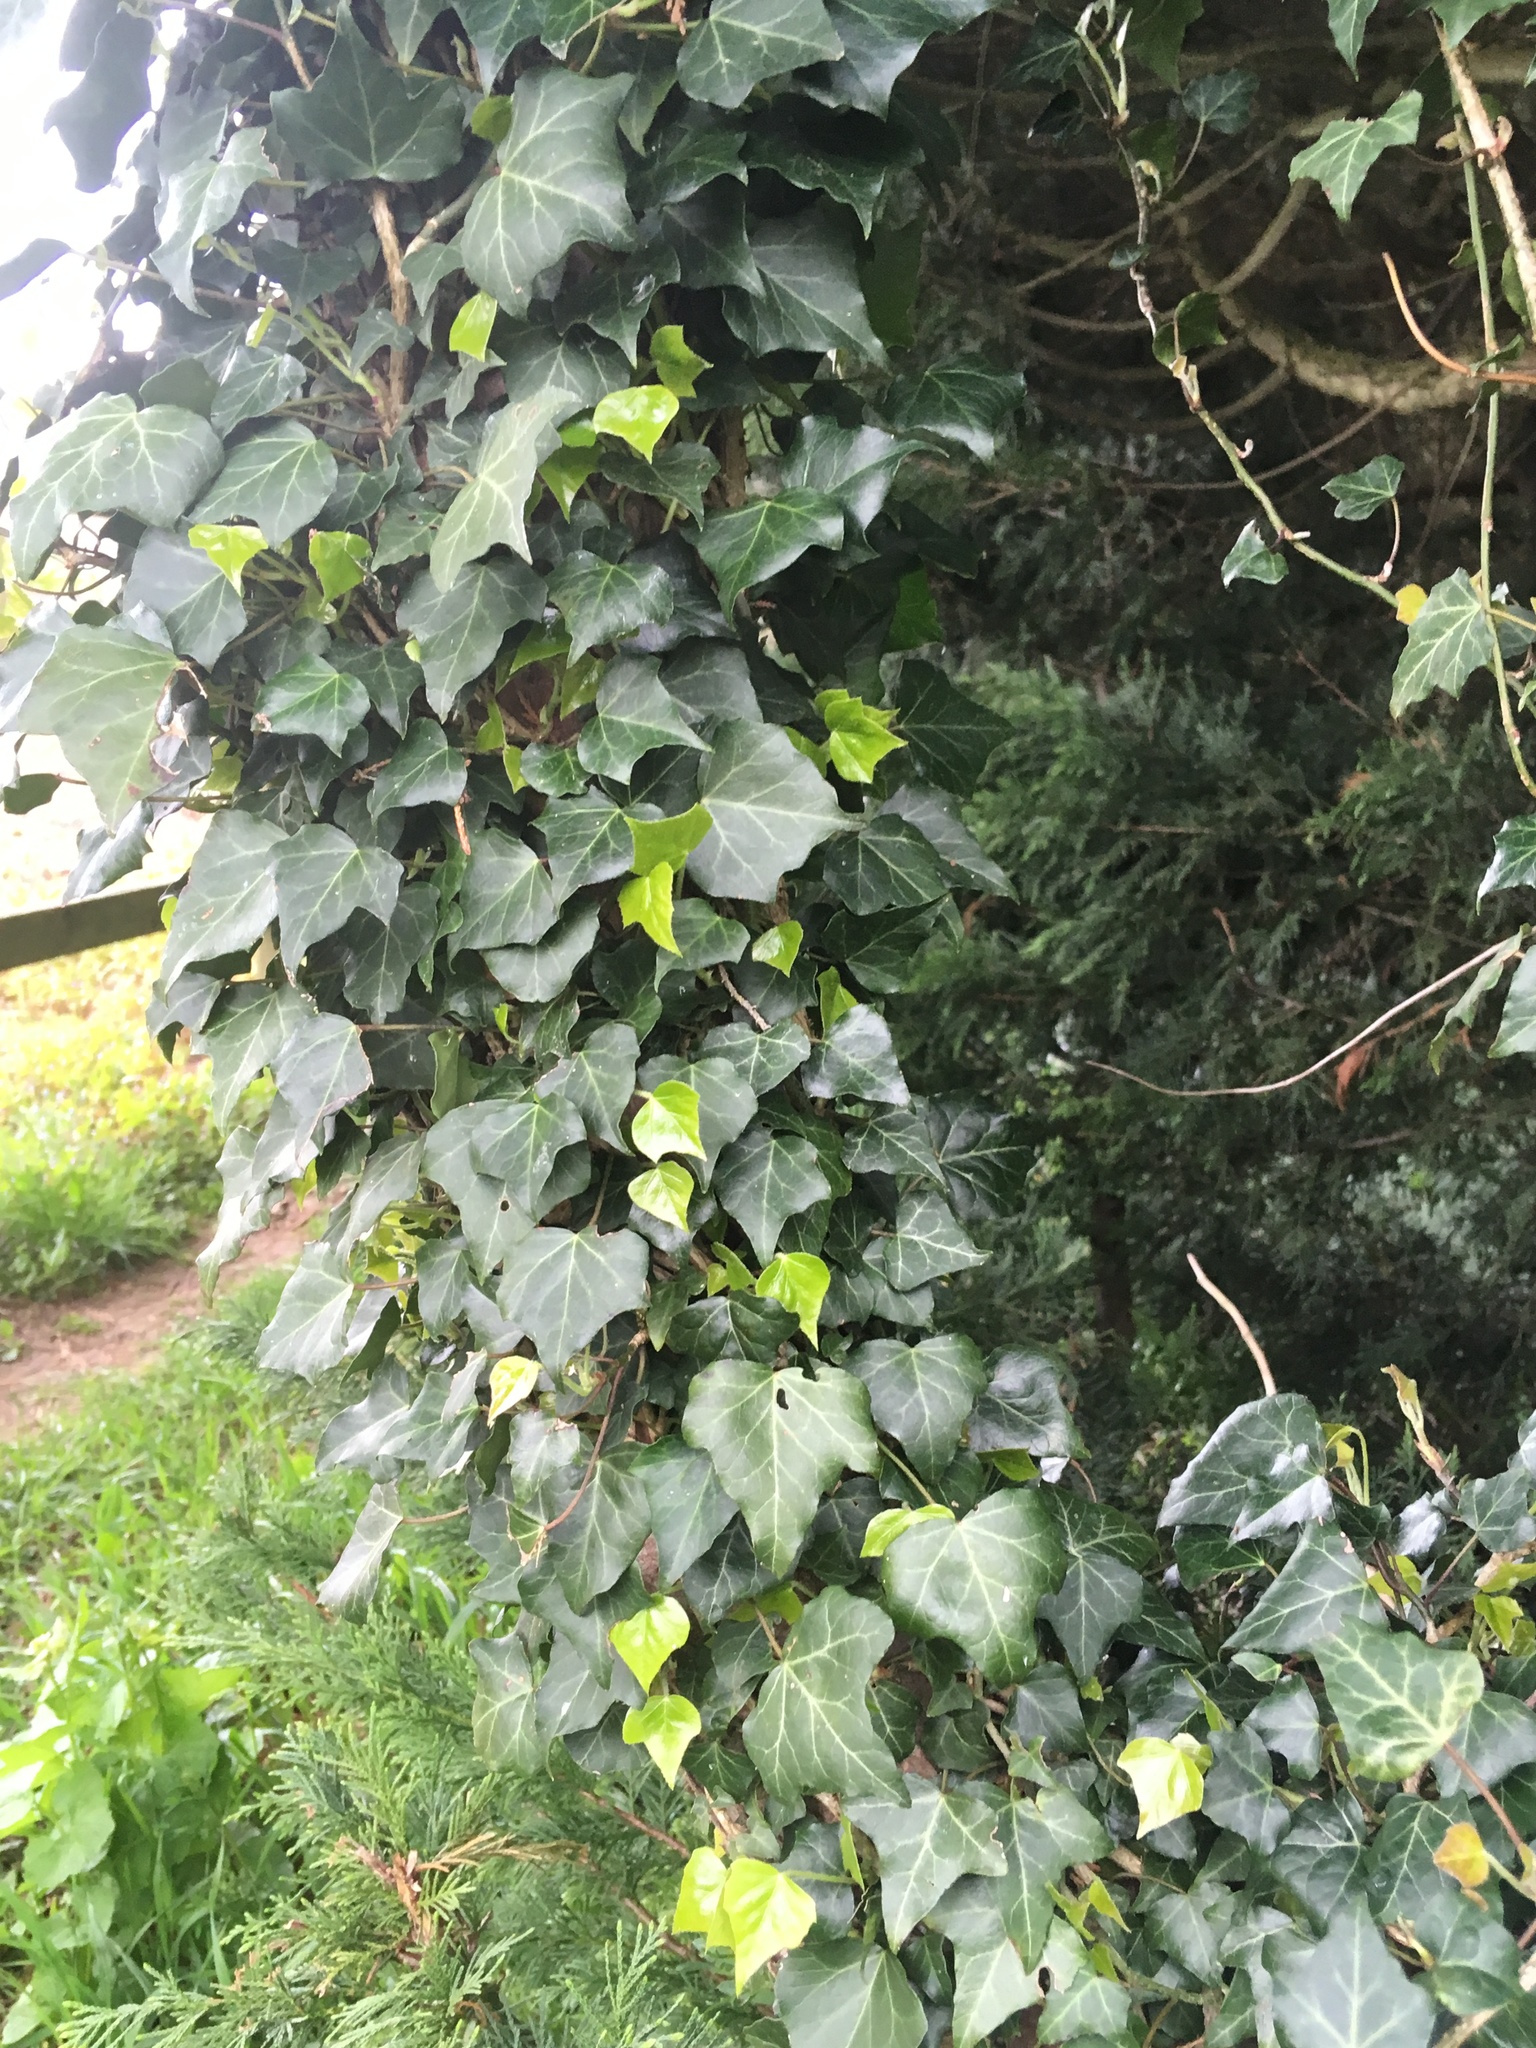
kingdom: Plantae
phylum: Tracheophyta
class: Magnoliopsida
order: Apiales
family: Araliaceae
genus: Hedera
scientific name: Hedera helix
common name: Ivy
